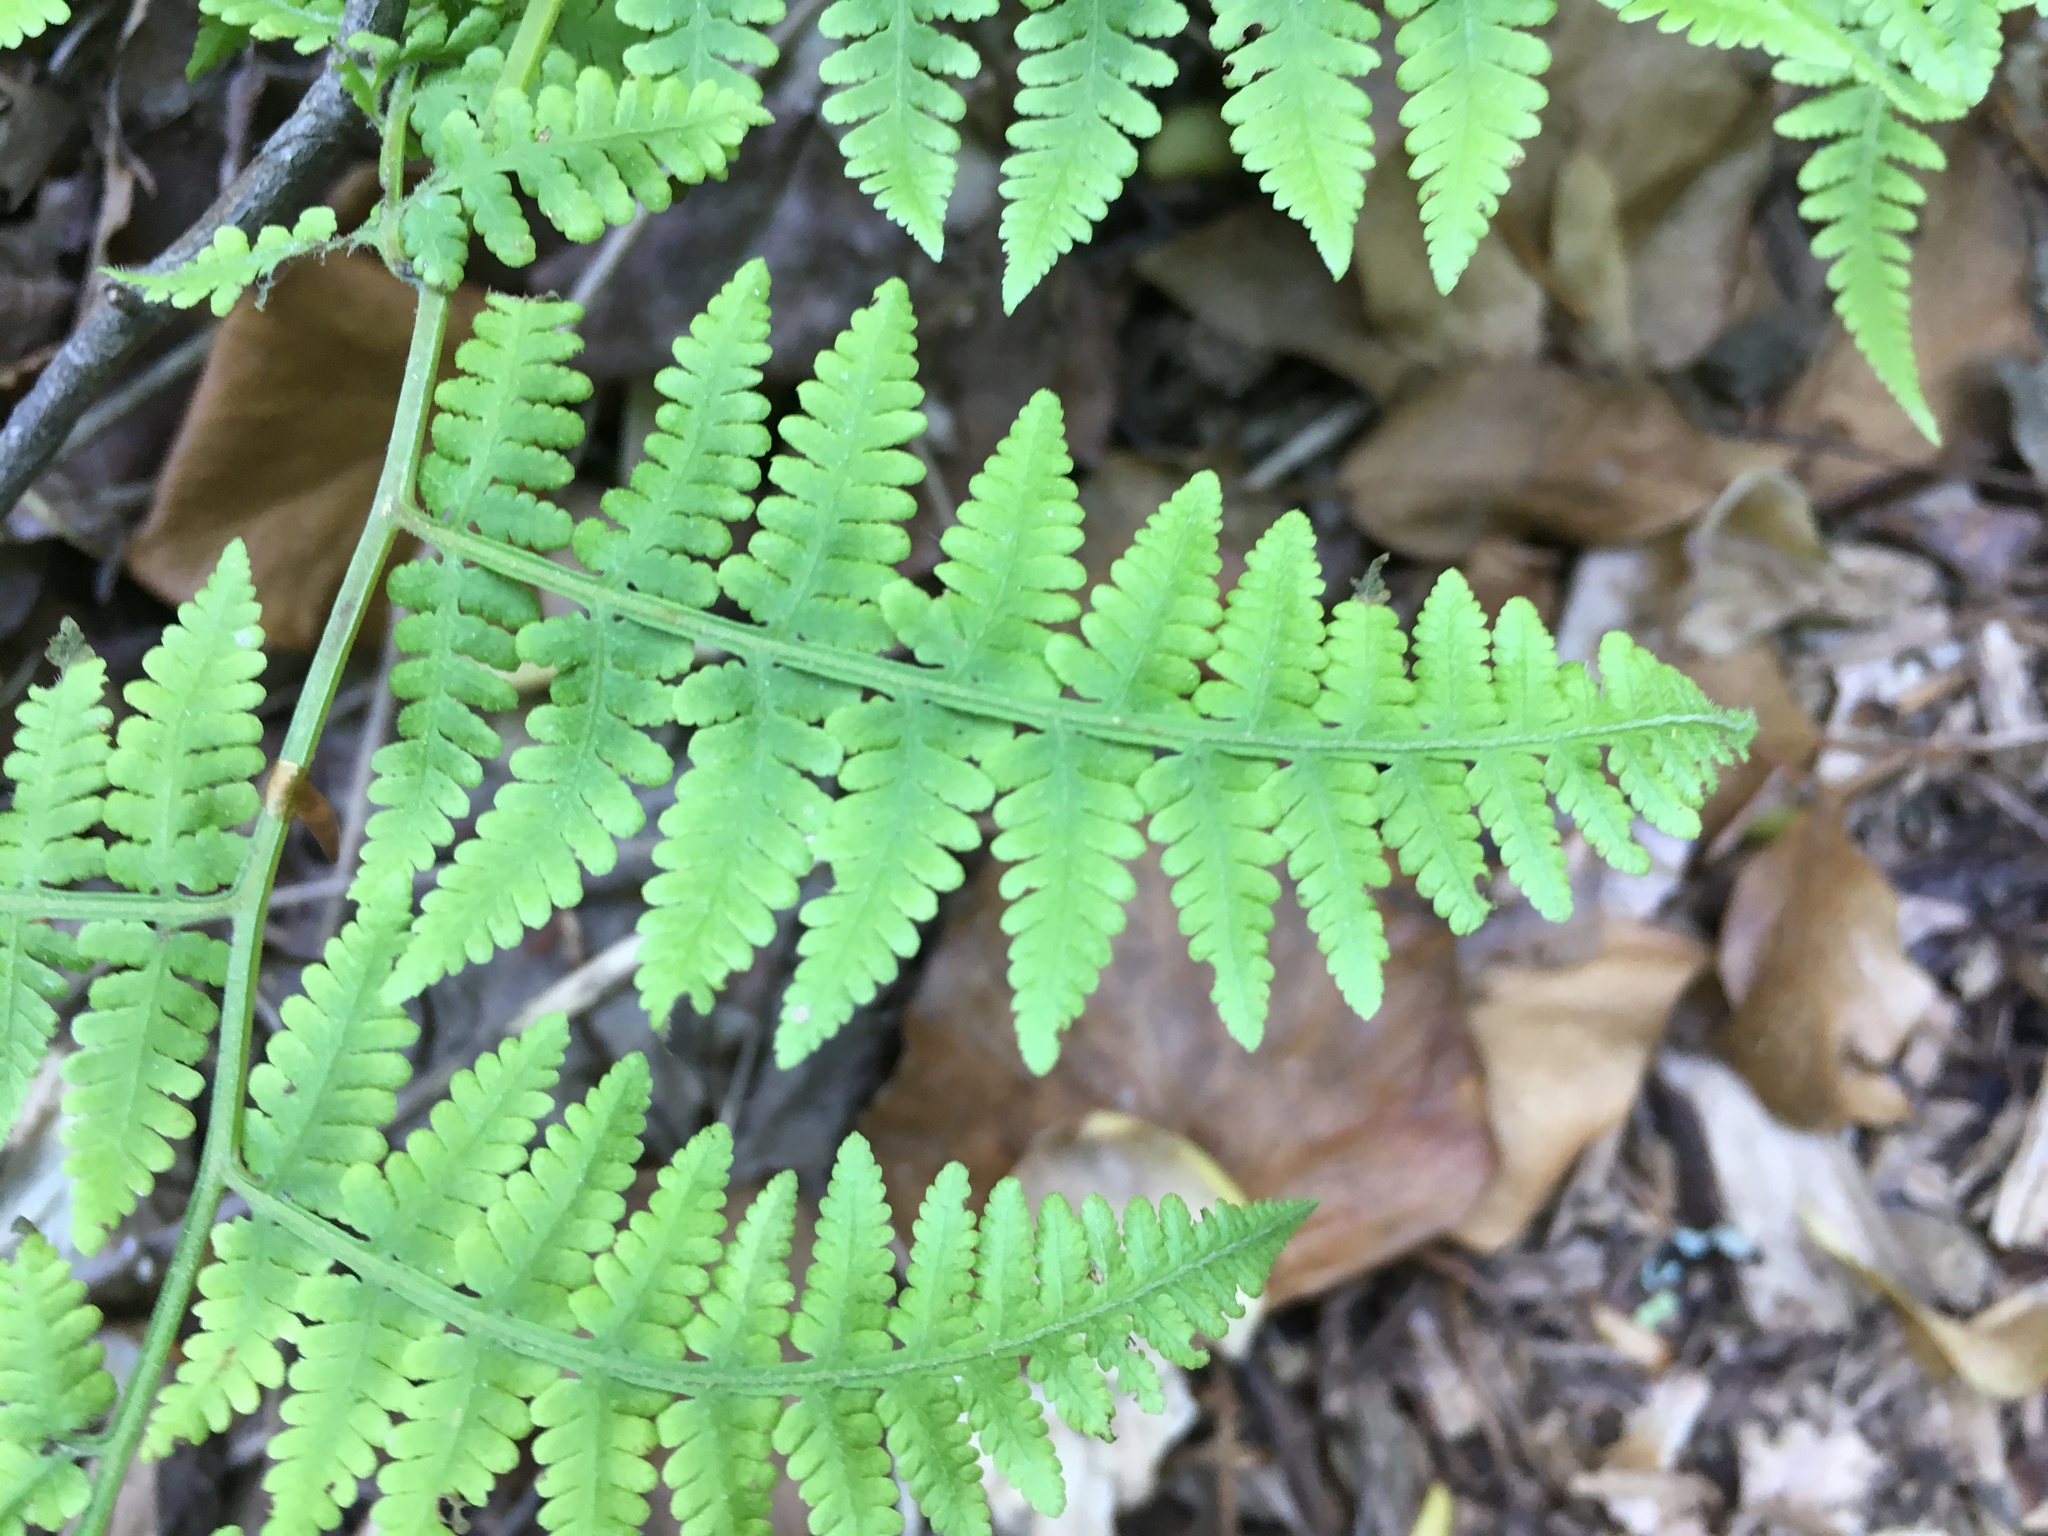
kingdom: Plantae
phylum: Tracheophyta
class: Polypodiopsida
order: Polypodiales
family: Thelypteridaceae
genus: Macrothelypteris
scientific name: Macrothelypteris torresiana
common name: Swordfern
